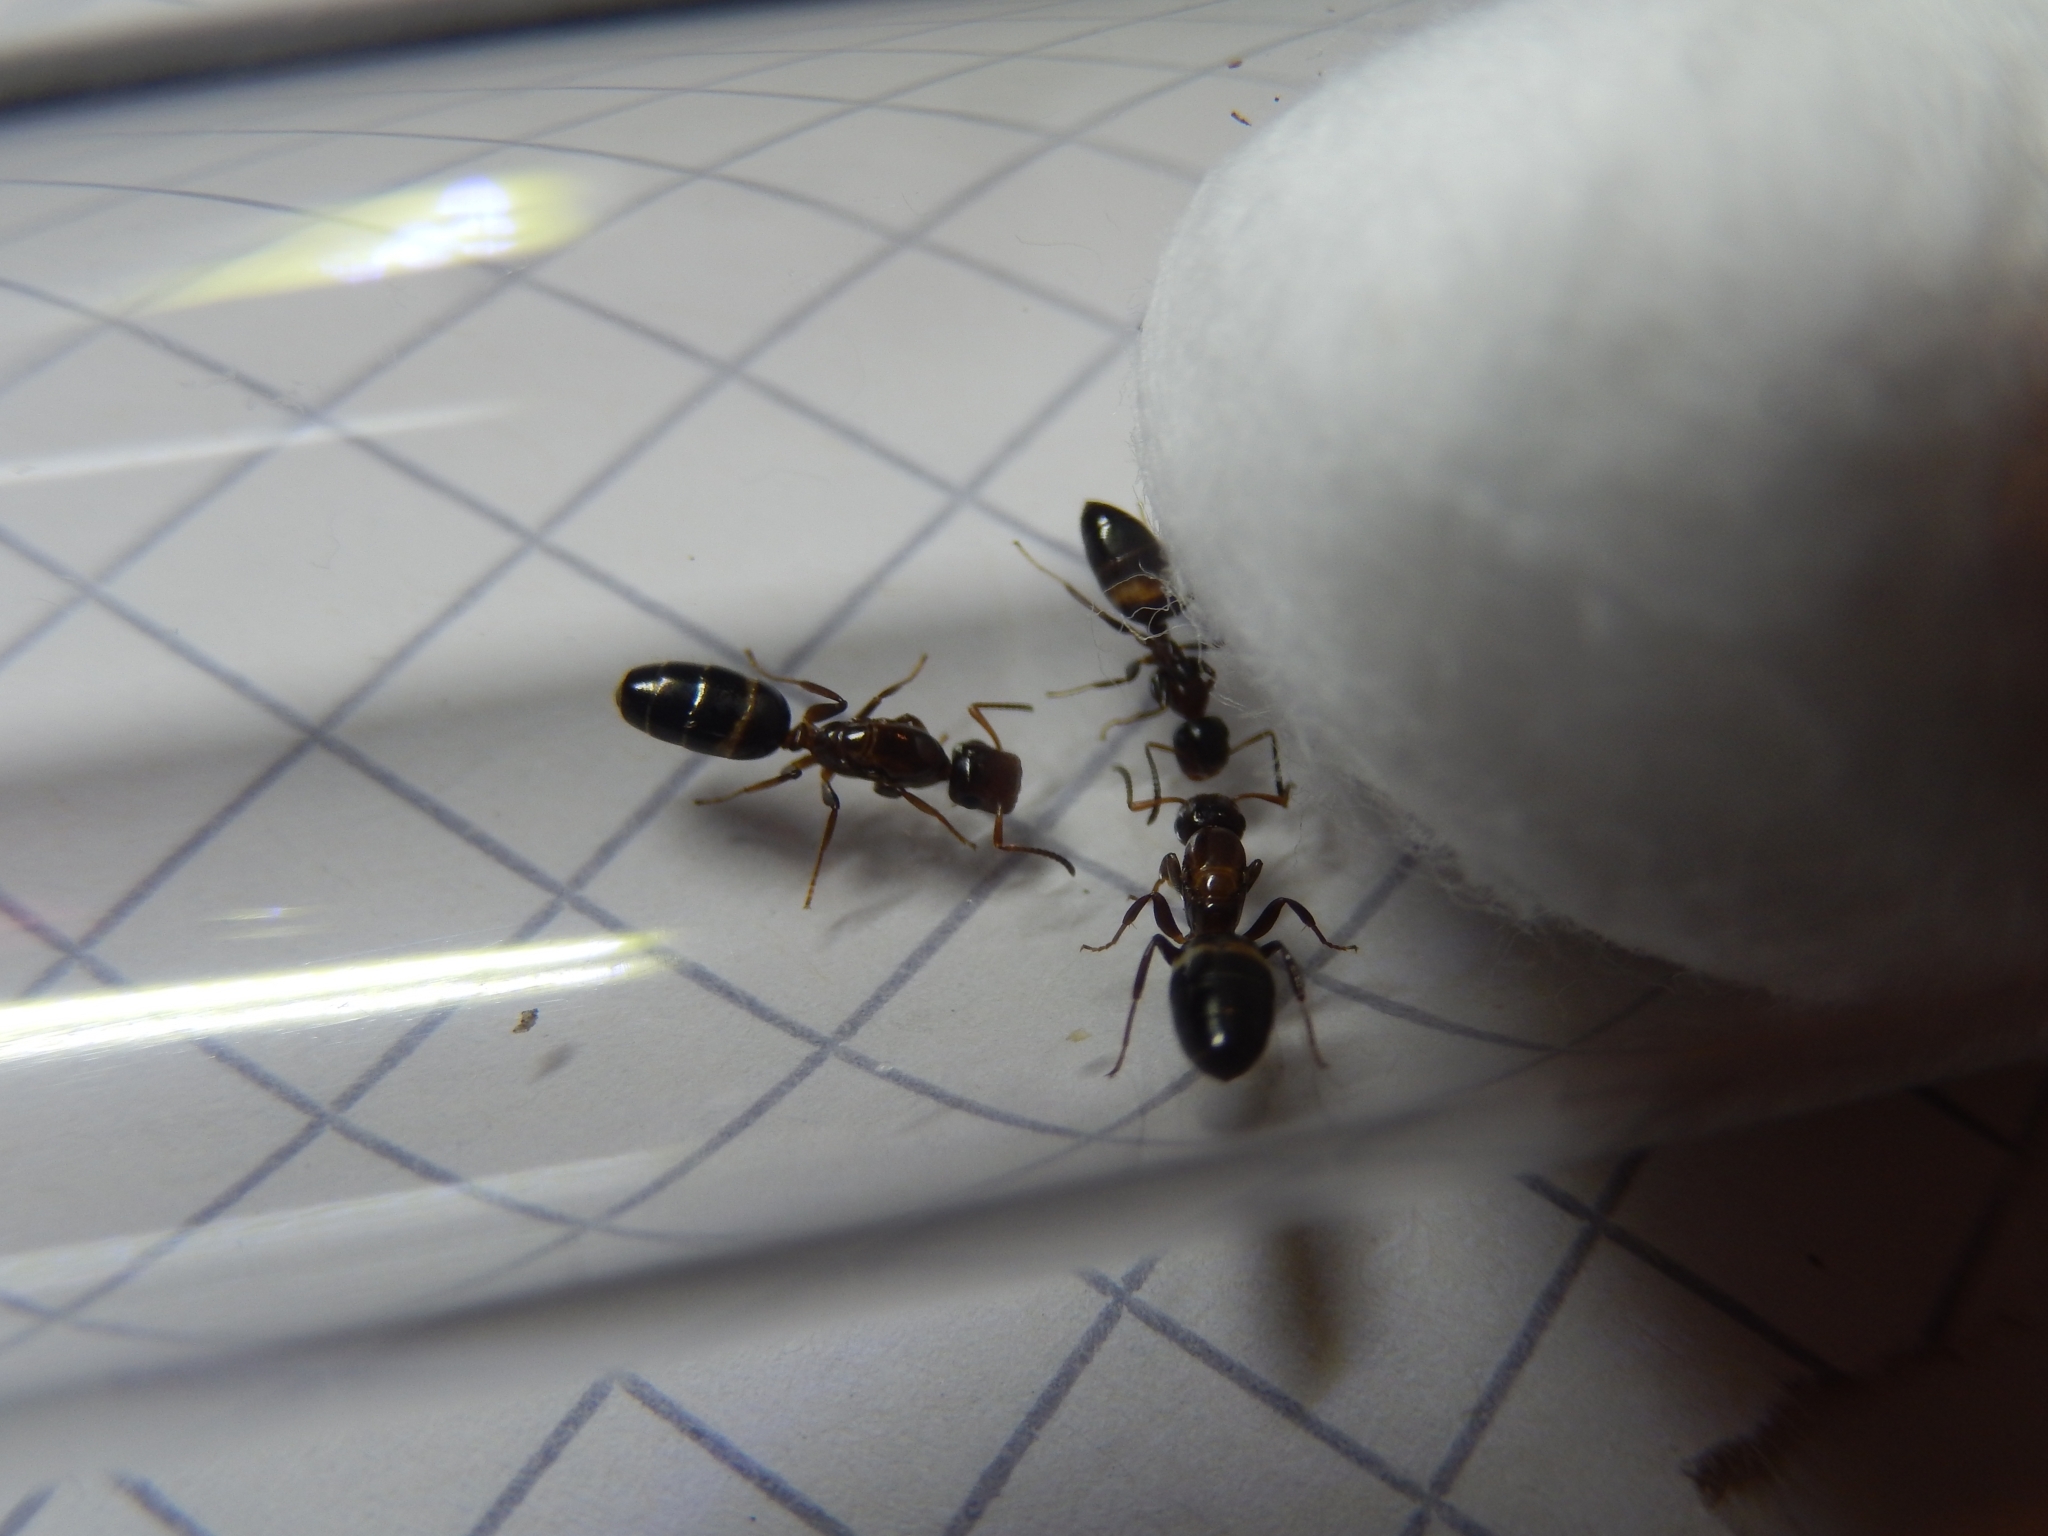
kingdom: Animalia
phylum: Arthropoda
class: Insecta
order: Hymenoptera
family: Formicidae
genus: Camponotus
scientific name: Camponotus truncatus
